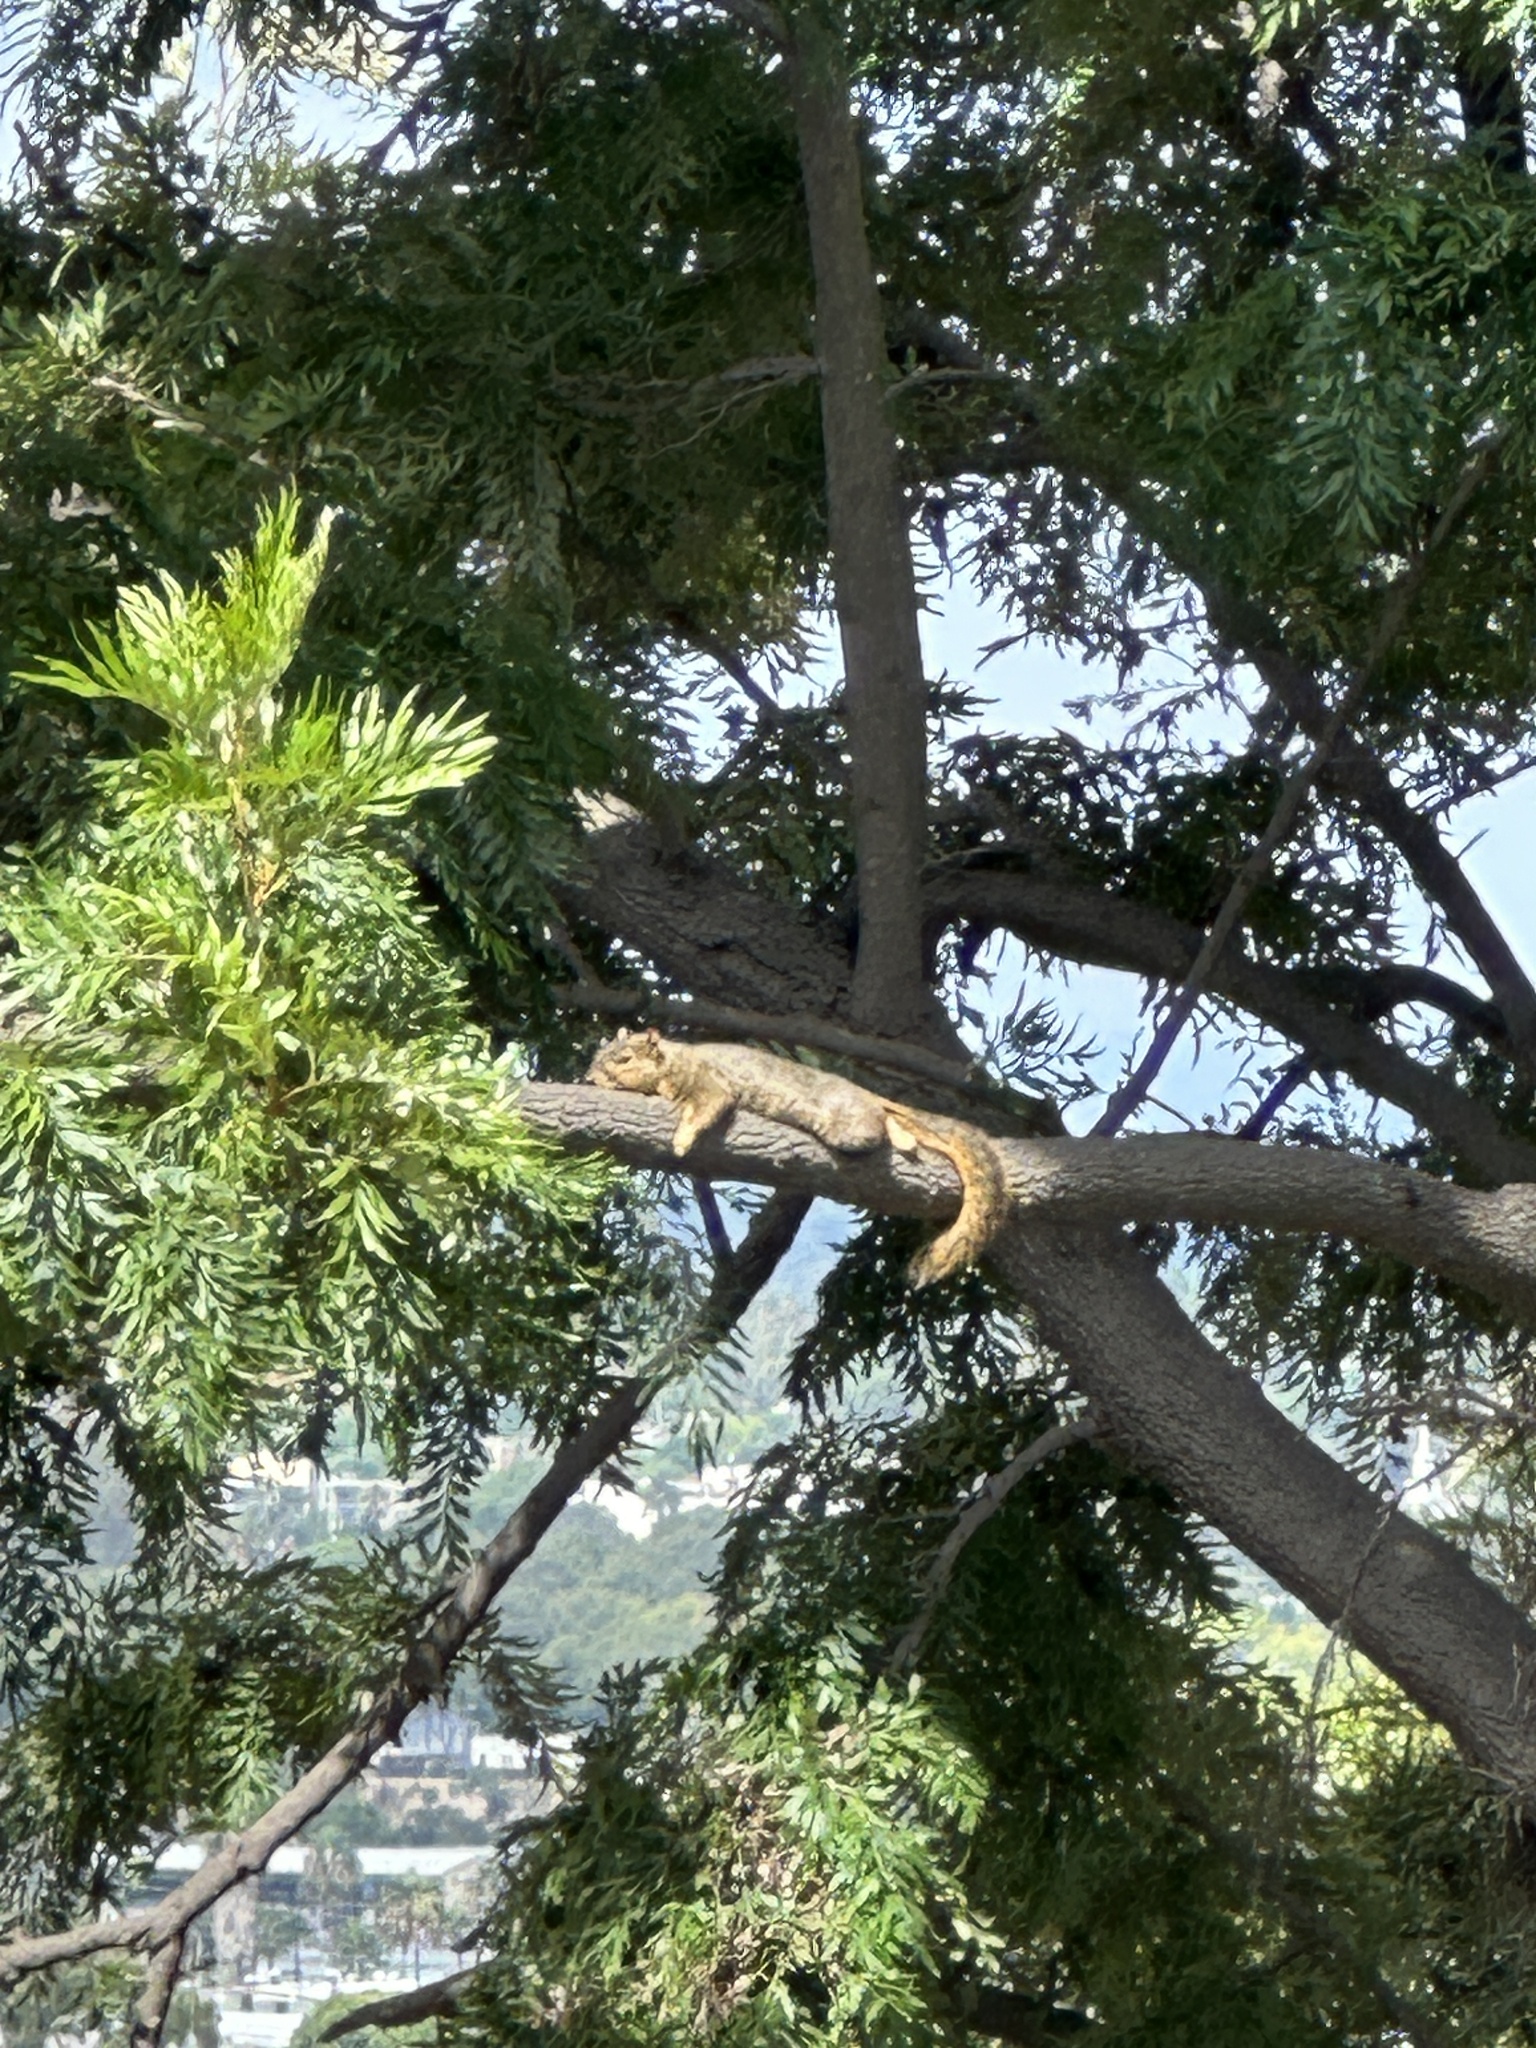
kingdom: Animalia
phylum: Chordata
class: Mammalia
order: Rodentia
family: Sciuridae
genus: Sciurus
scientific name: Sciurus niger
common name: Fox squirrel
